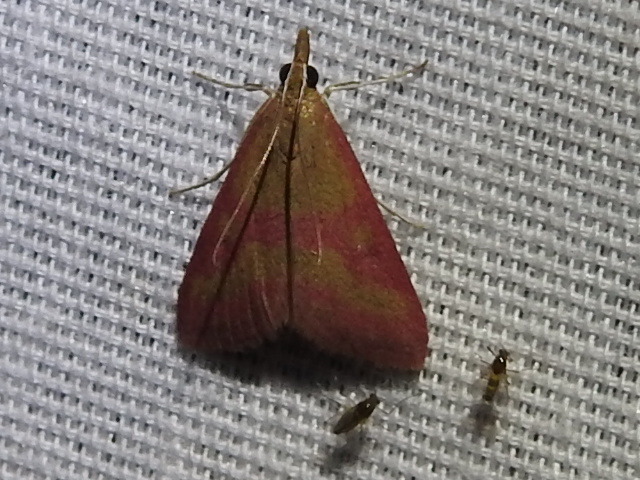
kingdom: Animalia
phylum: Arthropoda
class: Insecta
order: Lepidoptera
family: Crambidae
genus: Pyrausta
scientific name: Pyrausta laticlavia
